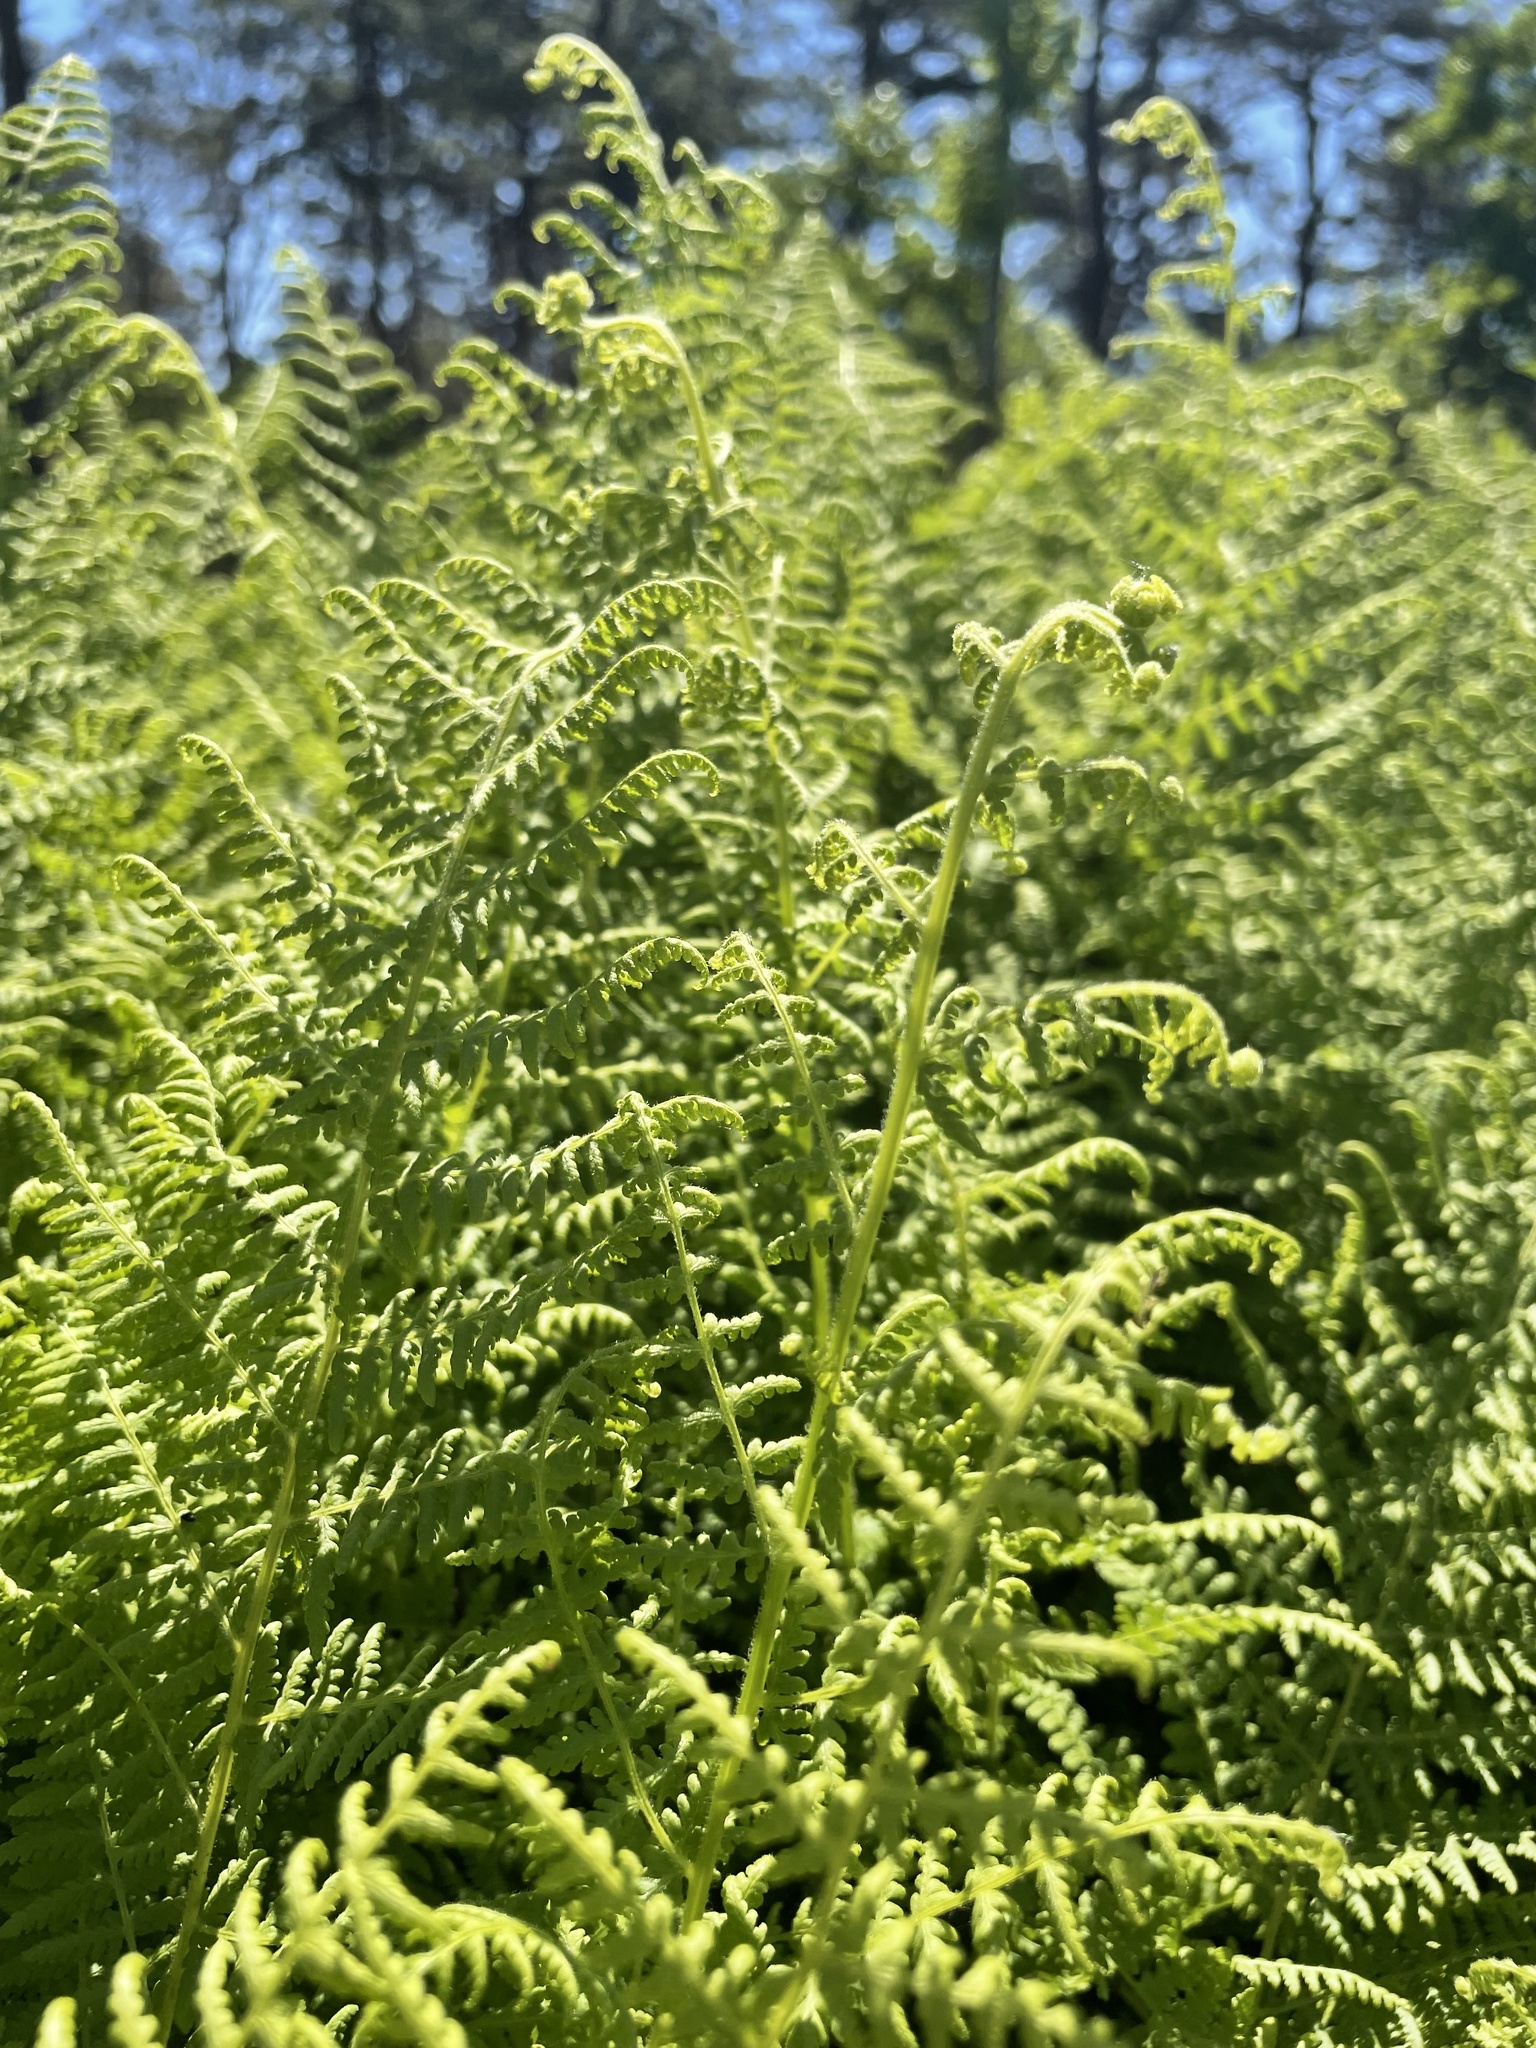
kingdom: Plantae
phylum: Tracheophyta
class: Polypodiopsida
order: Polypodiales
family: Dennstaedtiaceae
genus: Sitobolium
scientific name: Sitobolium punctilobum
